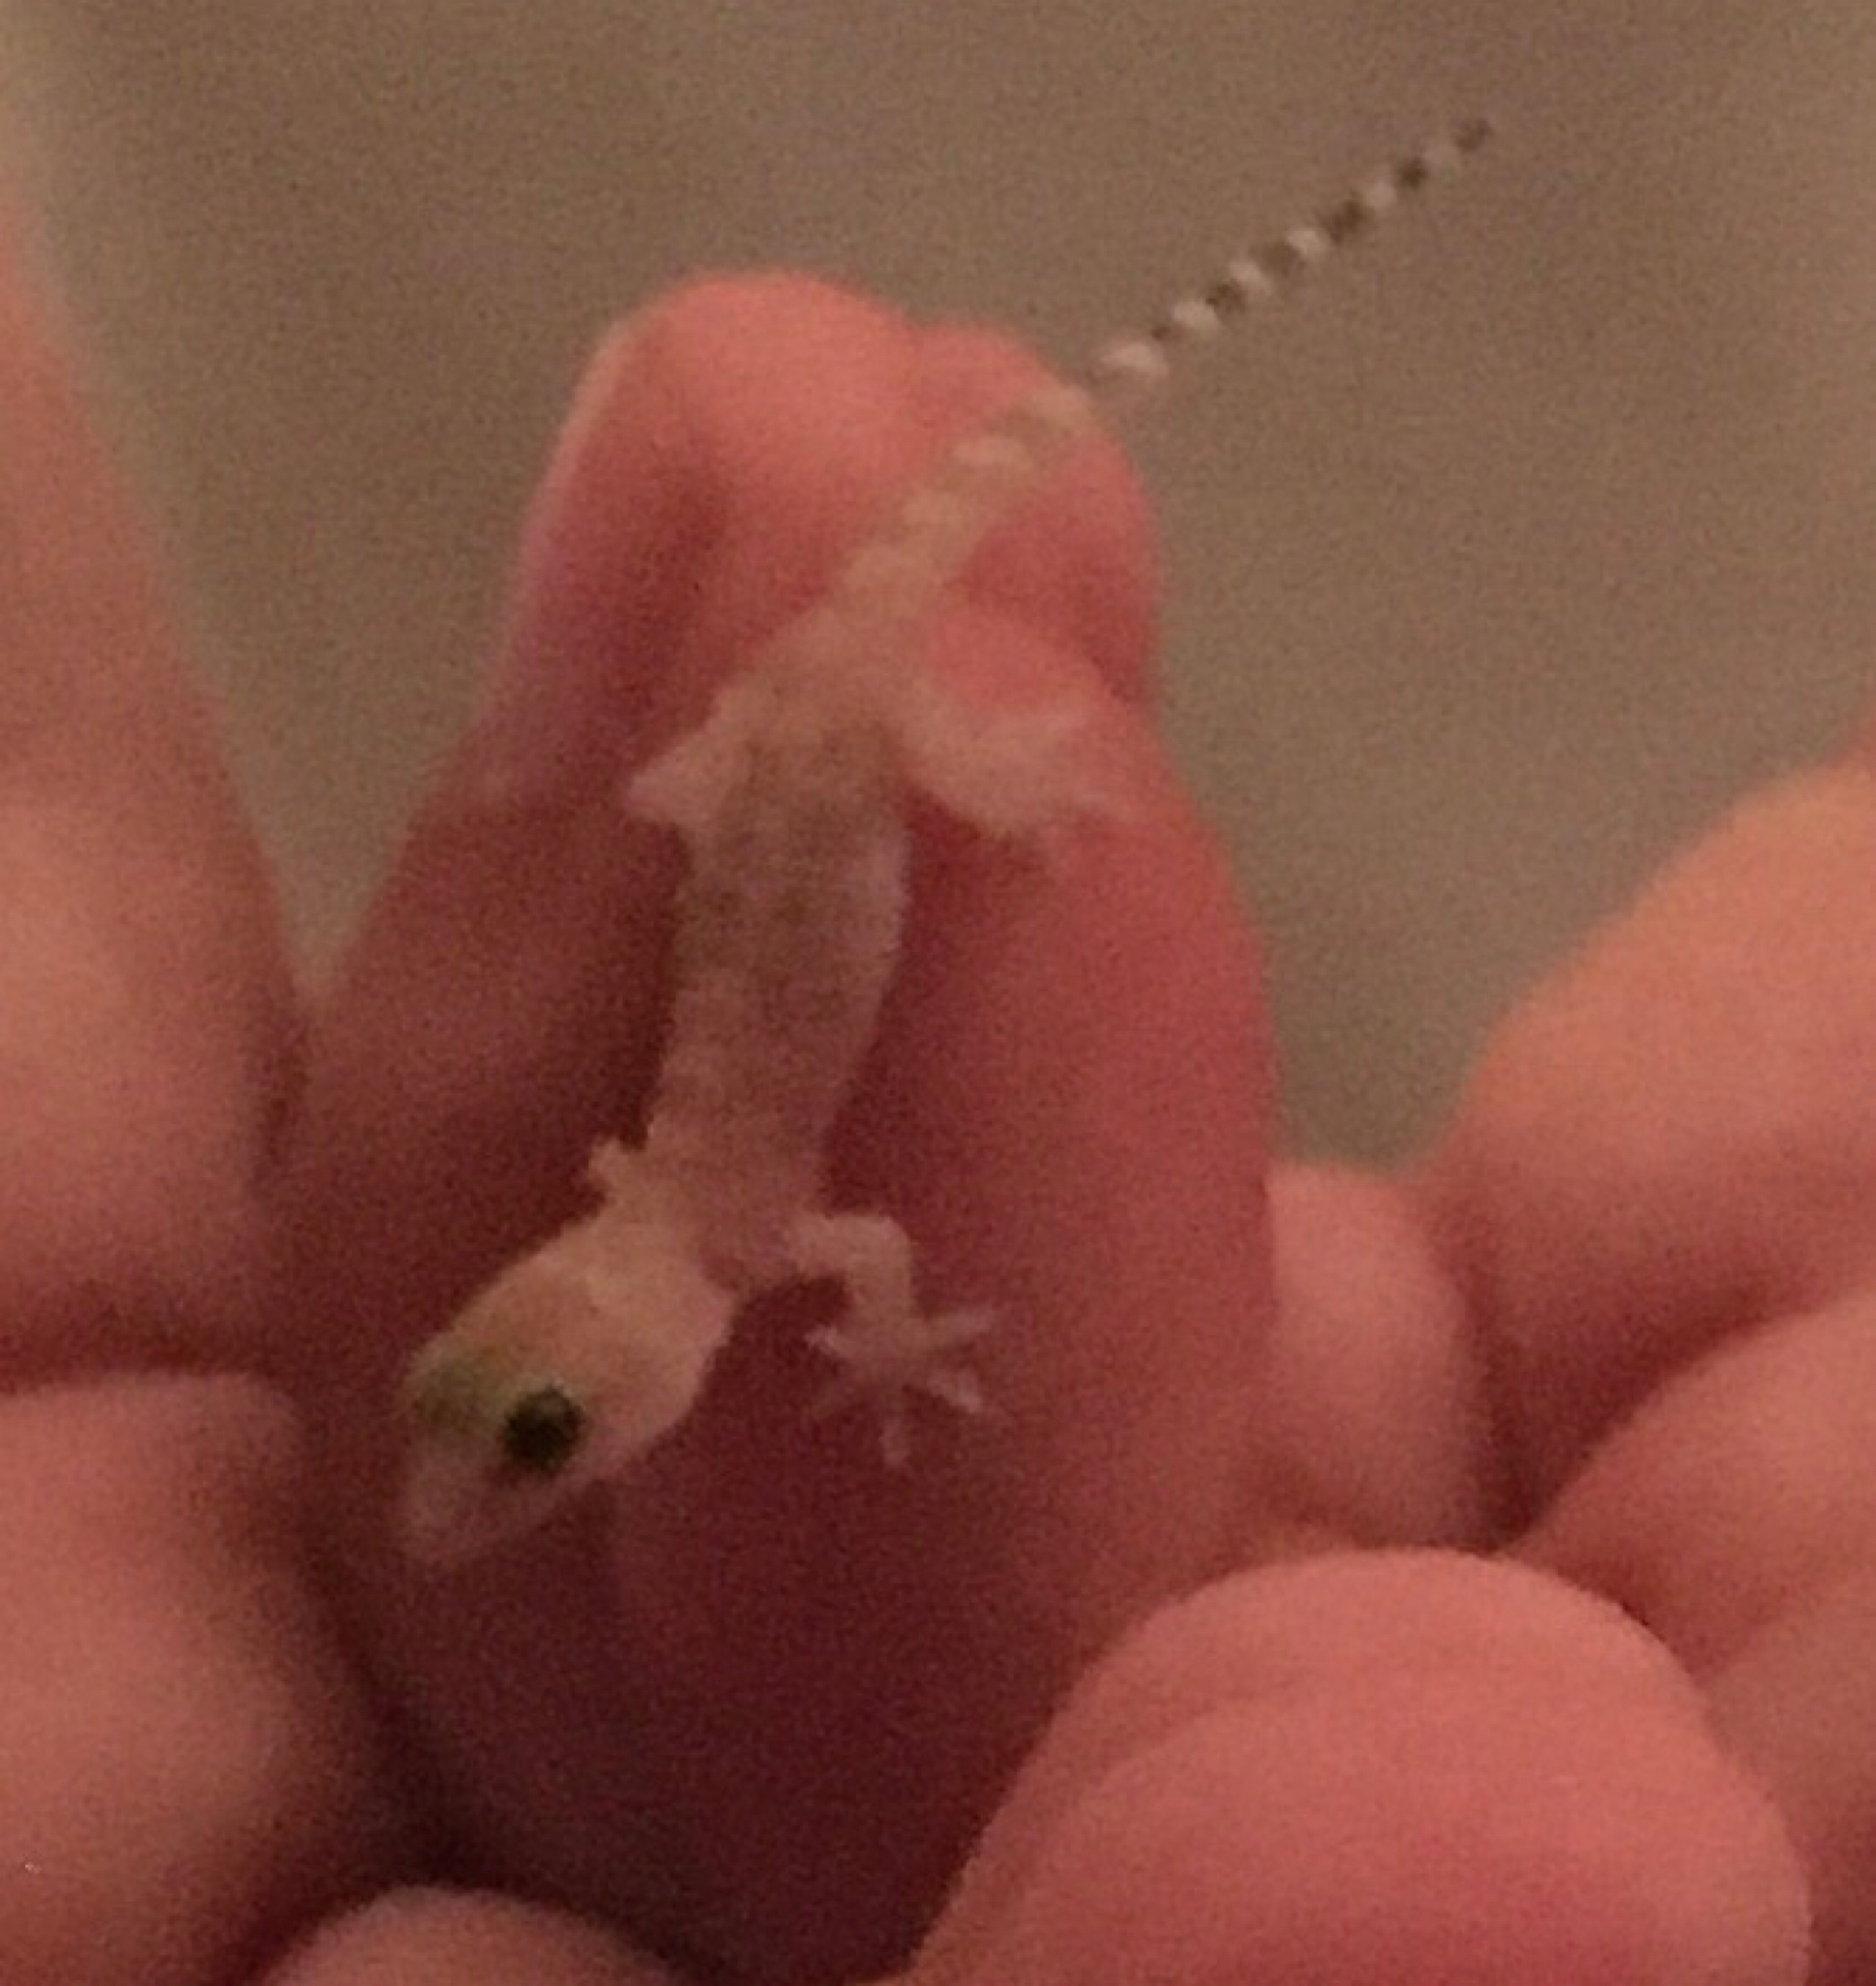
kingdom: Animalia
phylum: Chordata
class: Squamata
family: Gekkonidae
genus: Hemidactylus
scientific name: Hemidactylus turcicus
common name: Turkish gecko
